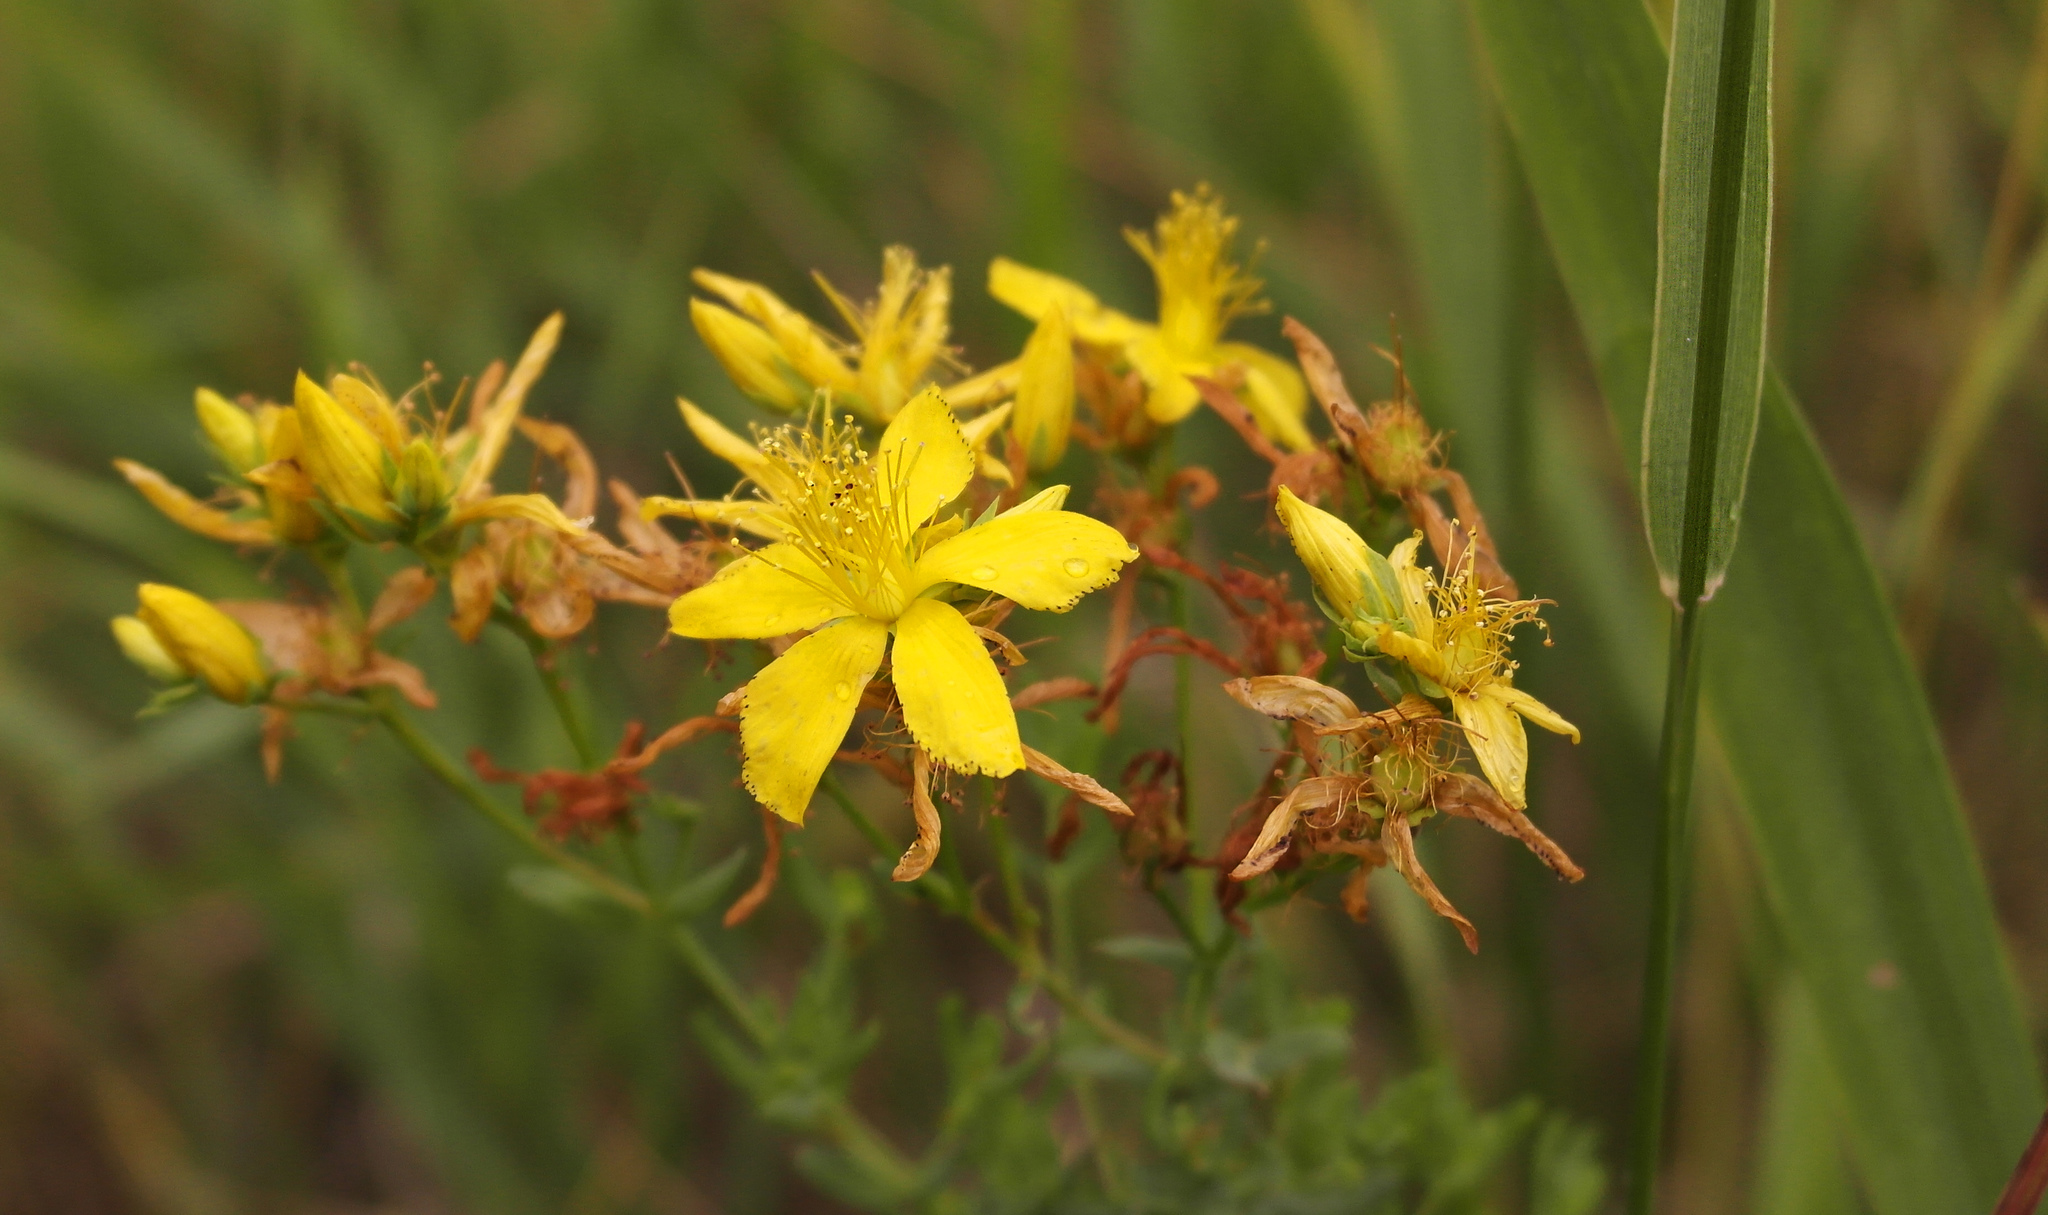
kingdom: Plantae
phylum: Tracheophyta
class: Magnoliopsida
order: Malpighiales
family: Hypericaceae
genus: Hypericum
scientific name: Hypericum perforatum
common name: Common st. johnswort
